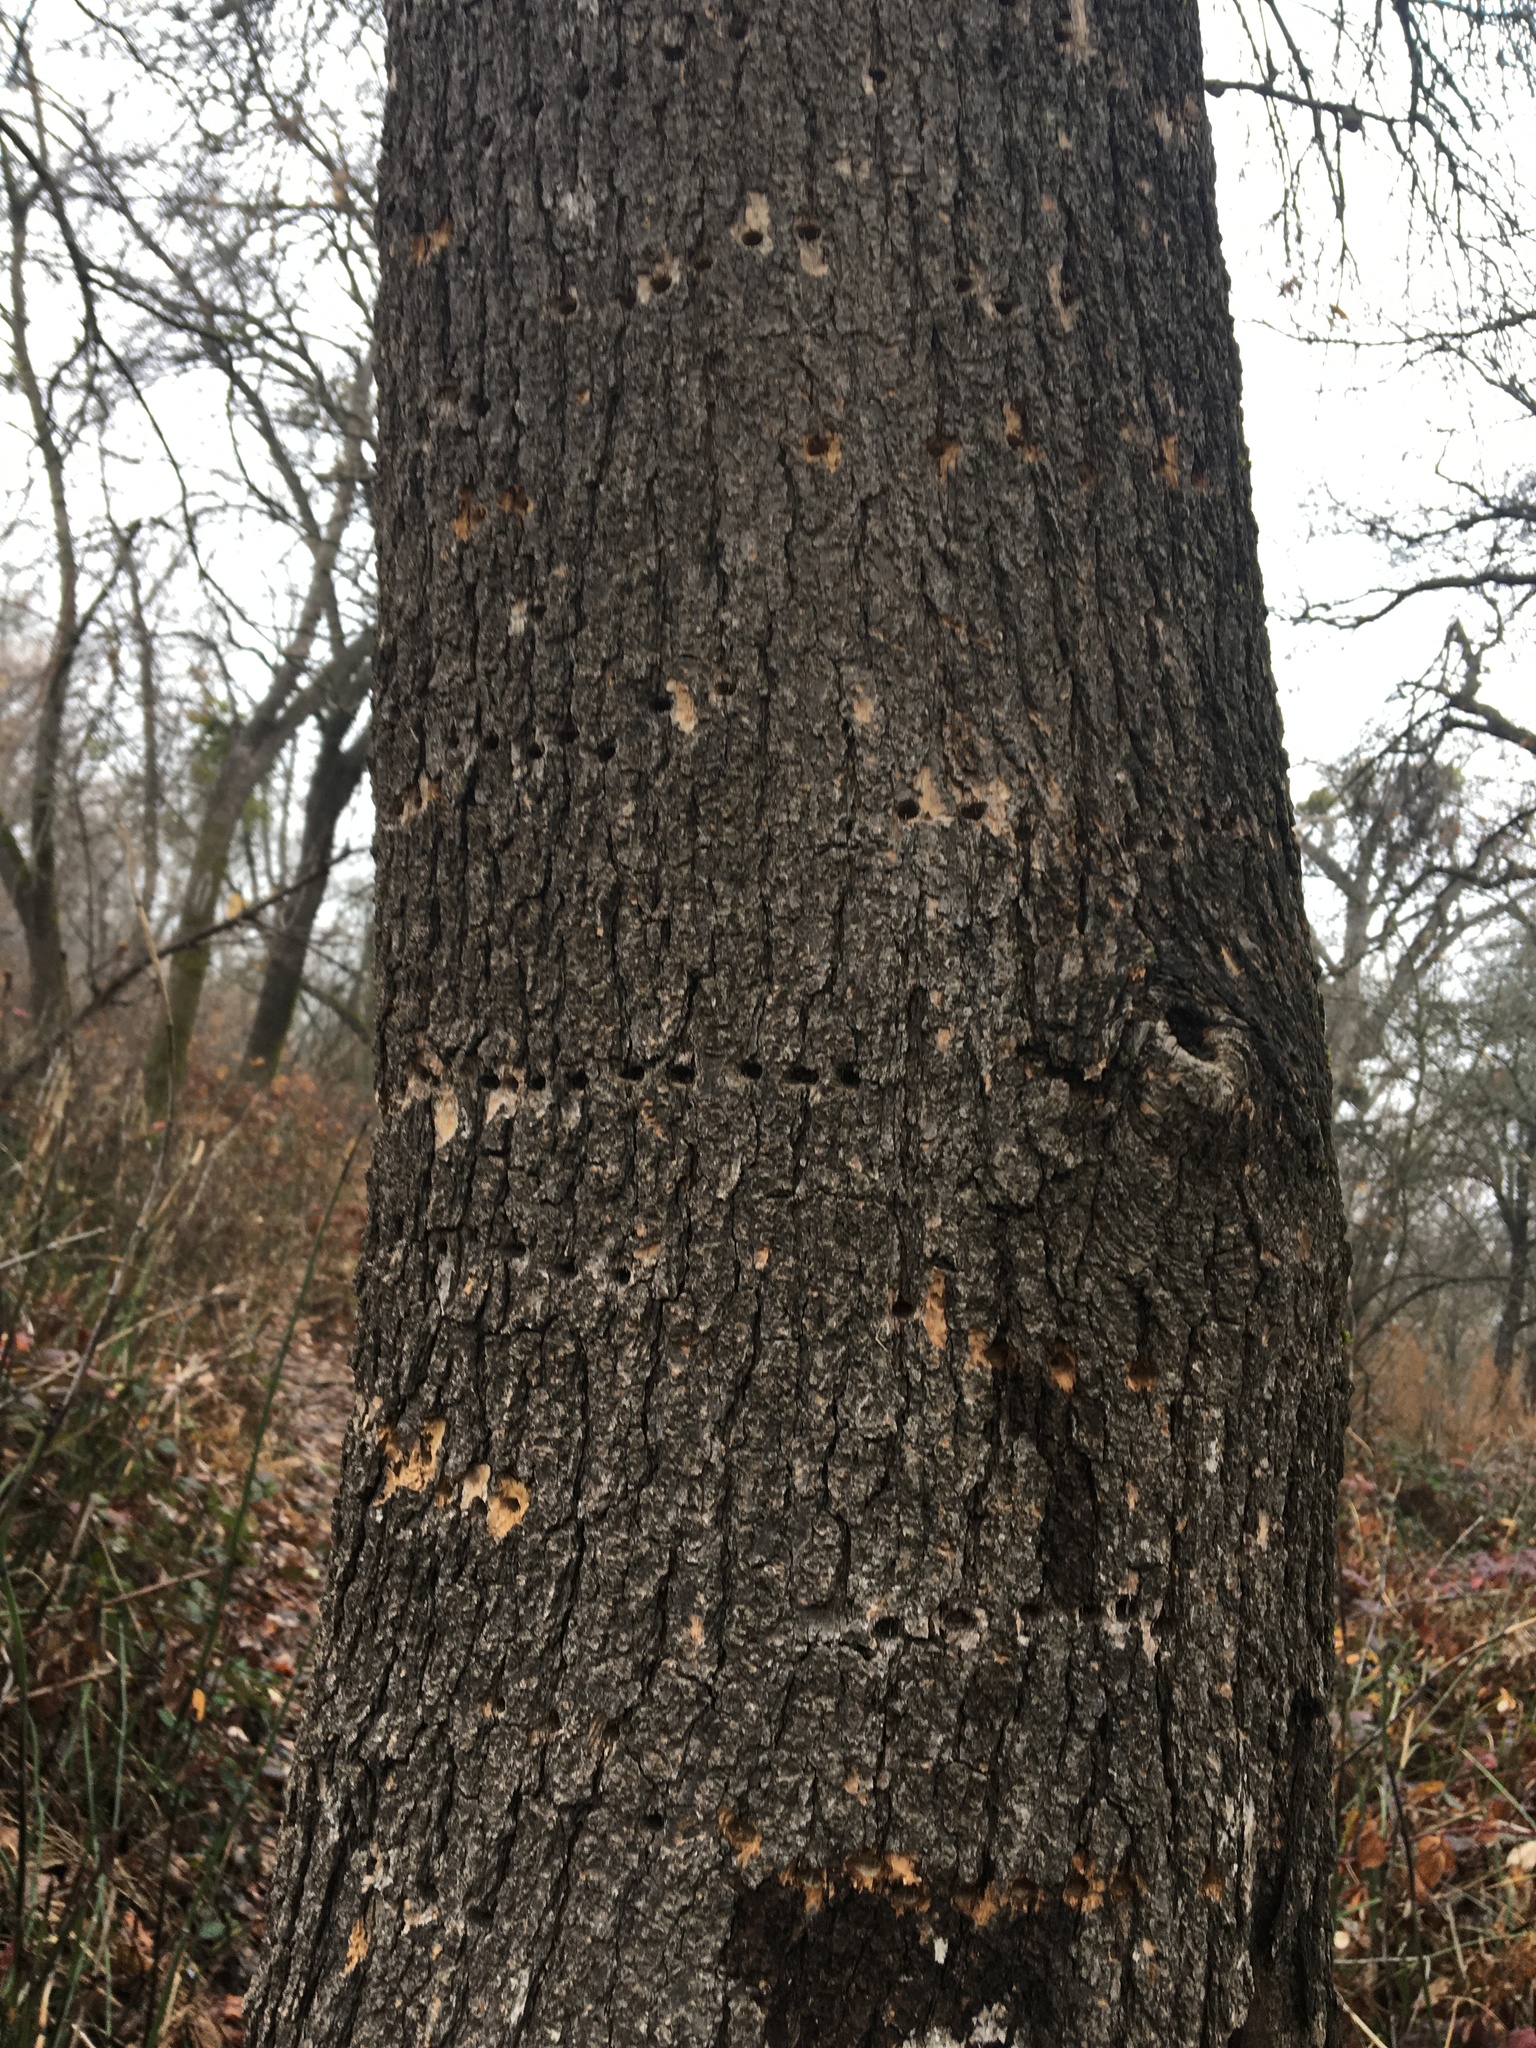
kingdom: Animalia
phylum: Chordata
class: Aves
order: Piciformes
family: Picidae
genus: Sphyrapicus
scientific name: Sphyrapicus ruber
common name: Red-breasted sapsucker
